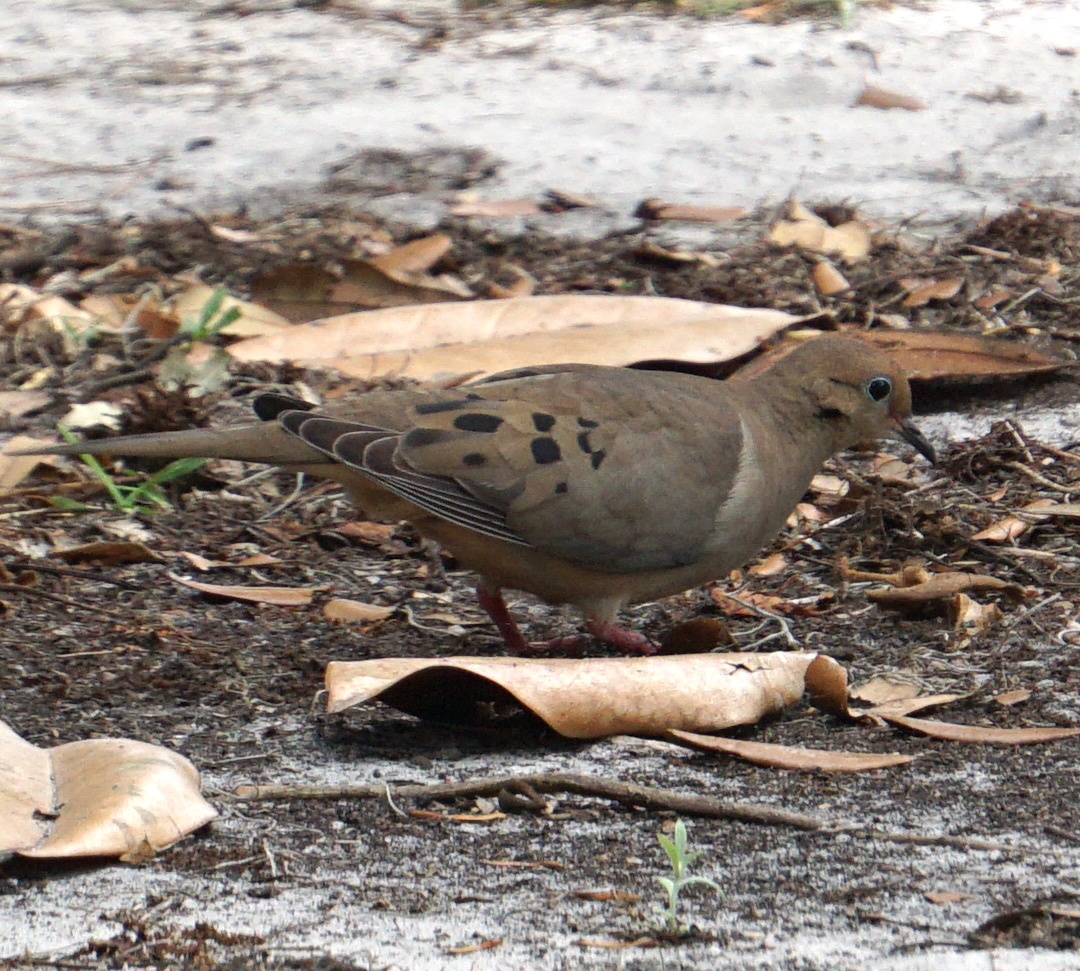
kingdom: Animalia
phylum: Chordata
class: Aves
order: Columbiformes
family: Columbidae
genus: Zenaida
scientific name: Zenaida macroura
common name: Mourning dove
